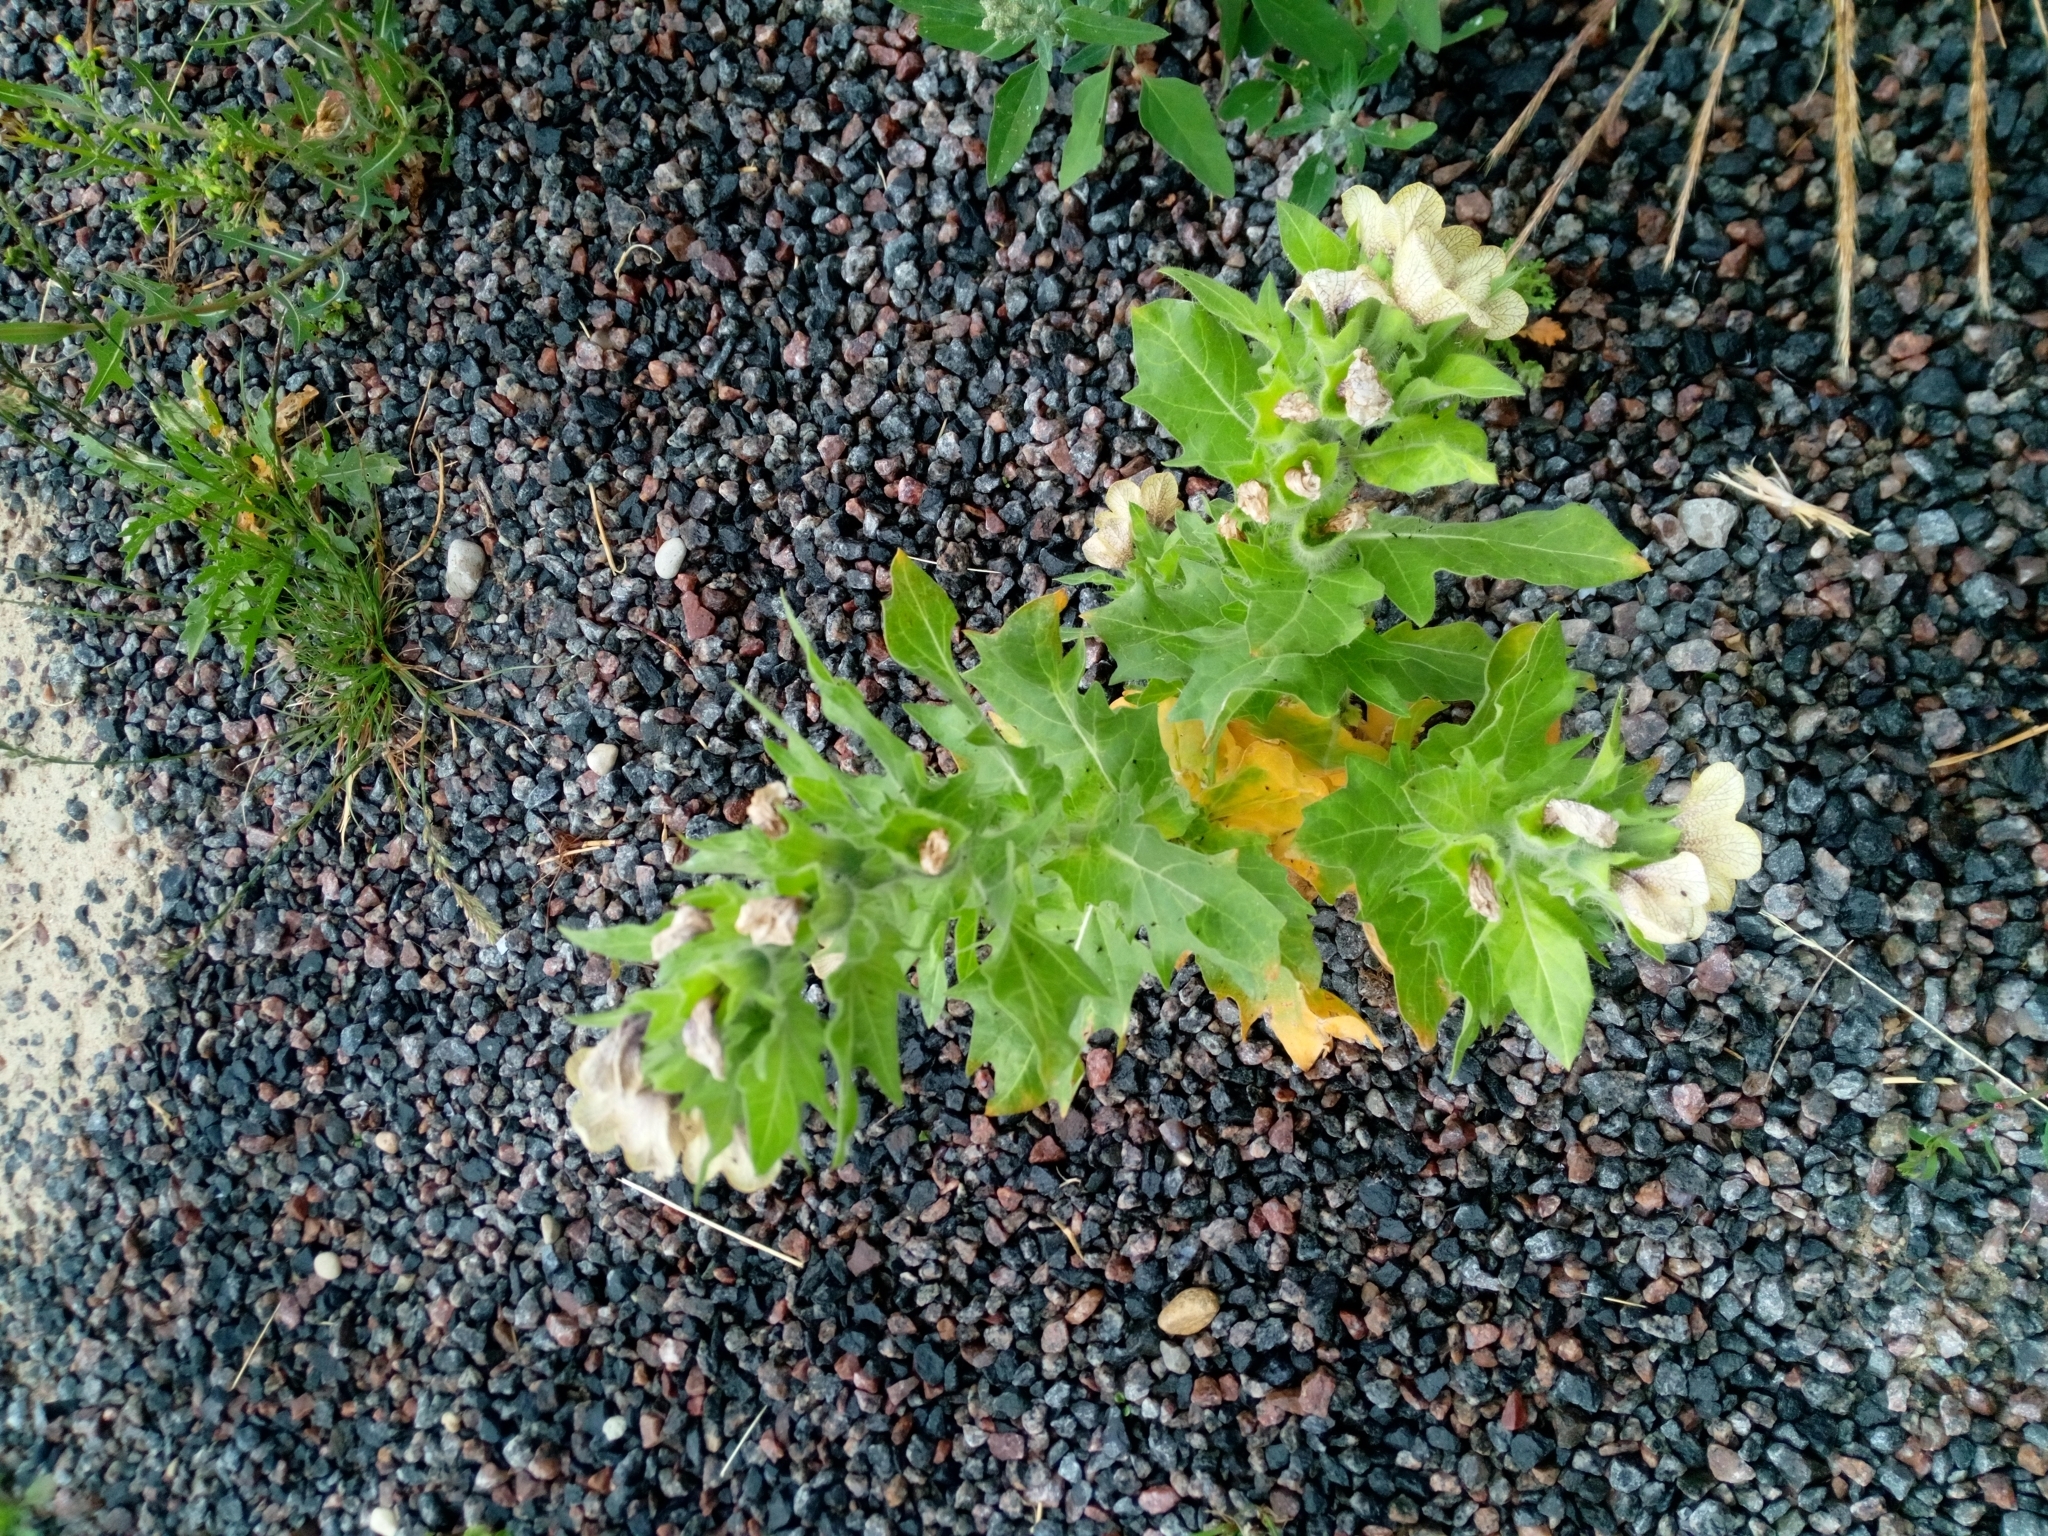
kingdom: Plantae
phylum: Tracheophyta
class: Magnoliopsida
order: Solanales
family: Solanaceae
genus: Hyoscyamus
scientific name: Hyoscyamus niger
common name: Henbane
